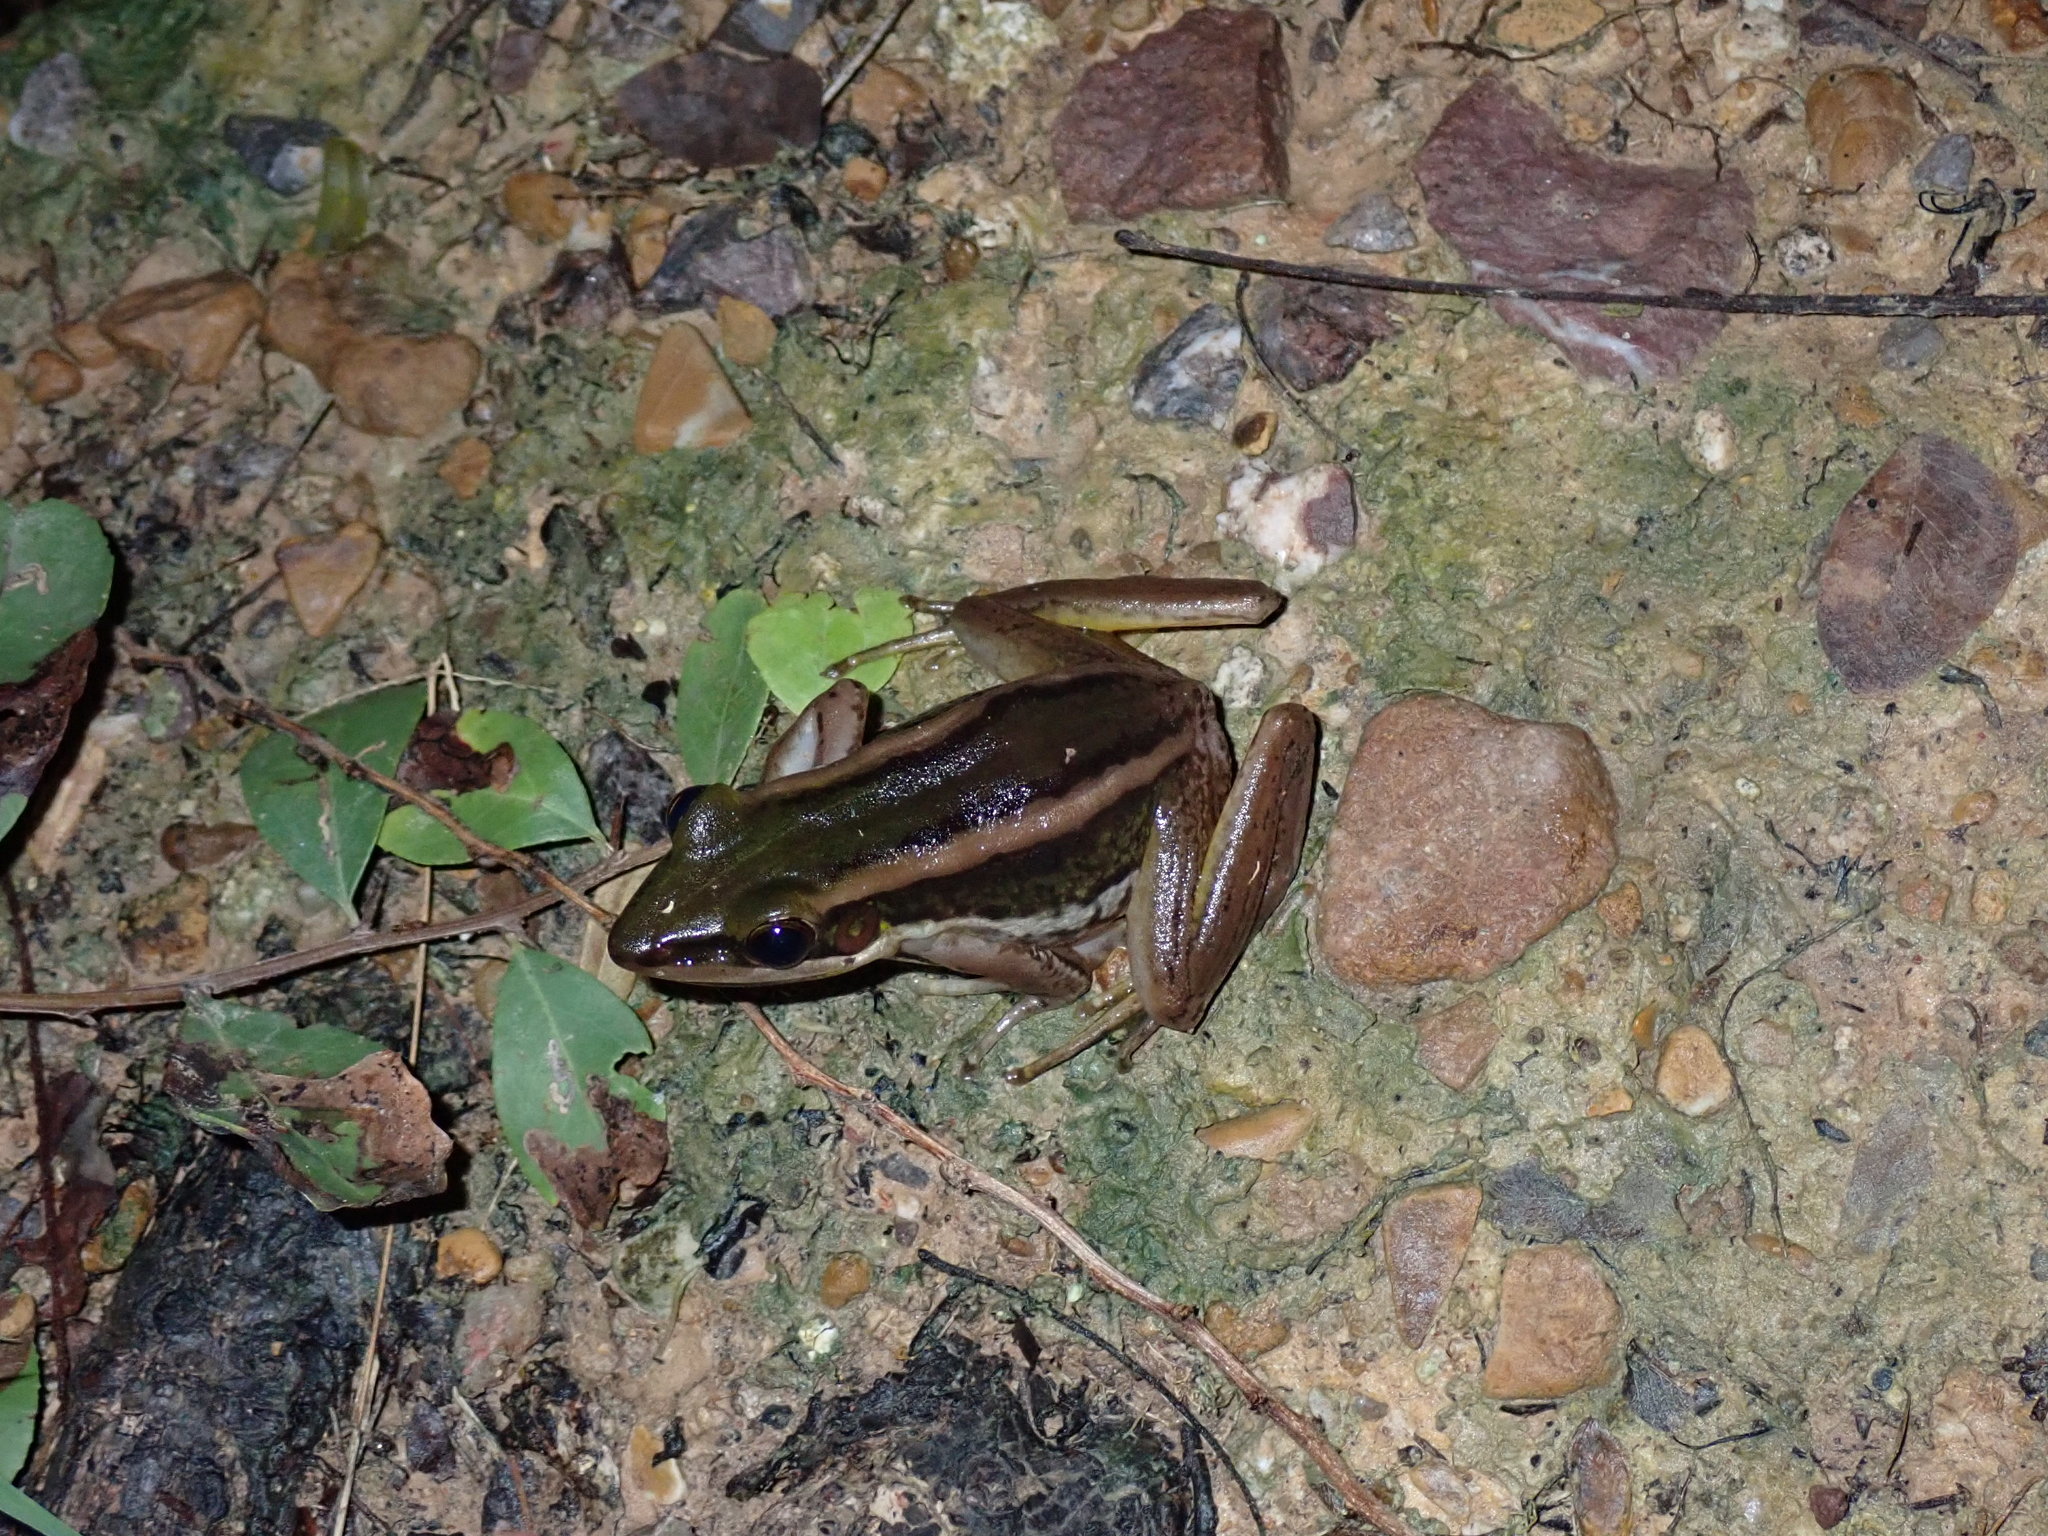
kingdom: Animalia
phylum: Chordata
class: Amphibia
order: Anura
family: Ranidae
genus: Hylarana
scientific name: Hylarana erythraea
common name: Common green frog/green paddy frog/leaf frog
